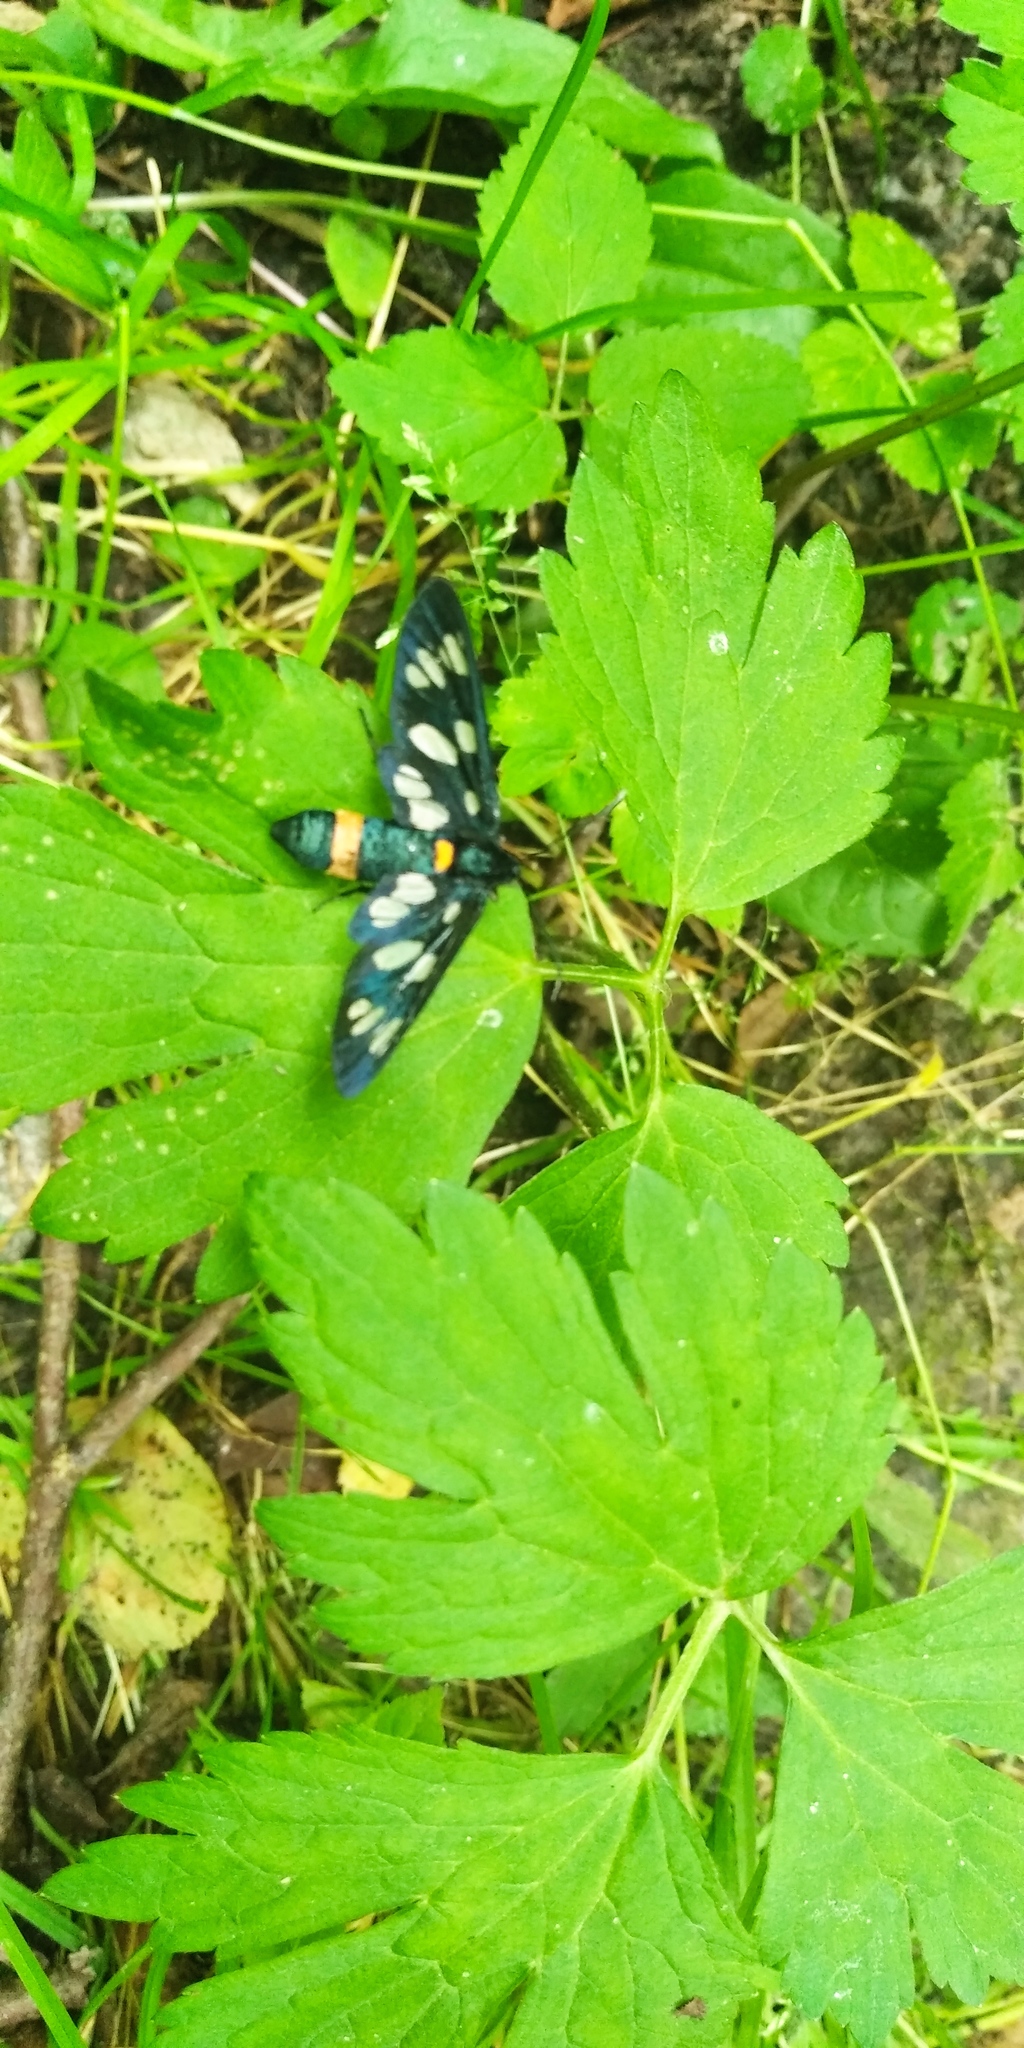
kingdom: Plantae
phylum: Tracheophyta
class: Magnoliopsida
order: Rosales
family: Cannabaceae
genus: Humulus
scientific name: Humulus lupulus
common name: Hop
